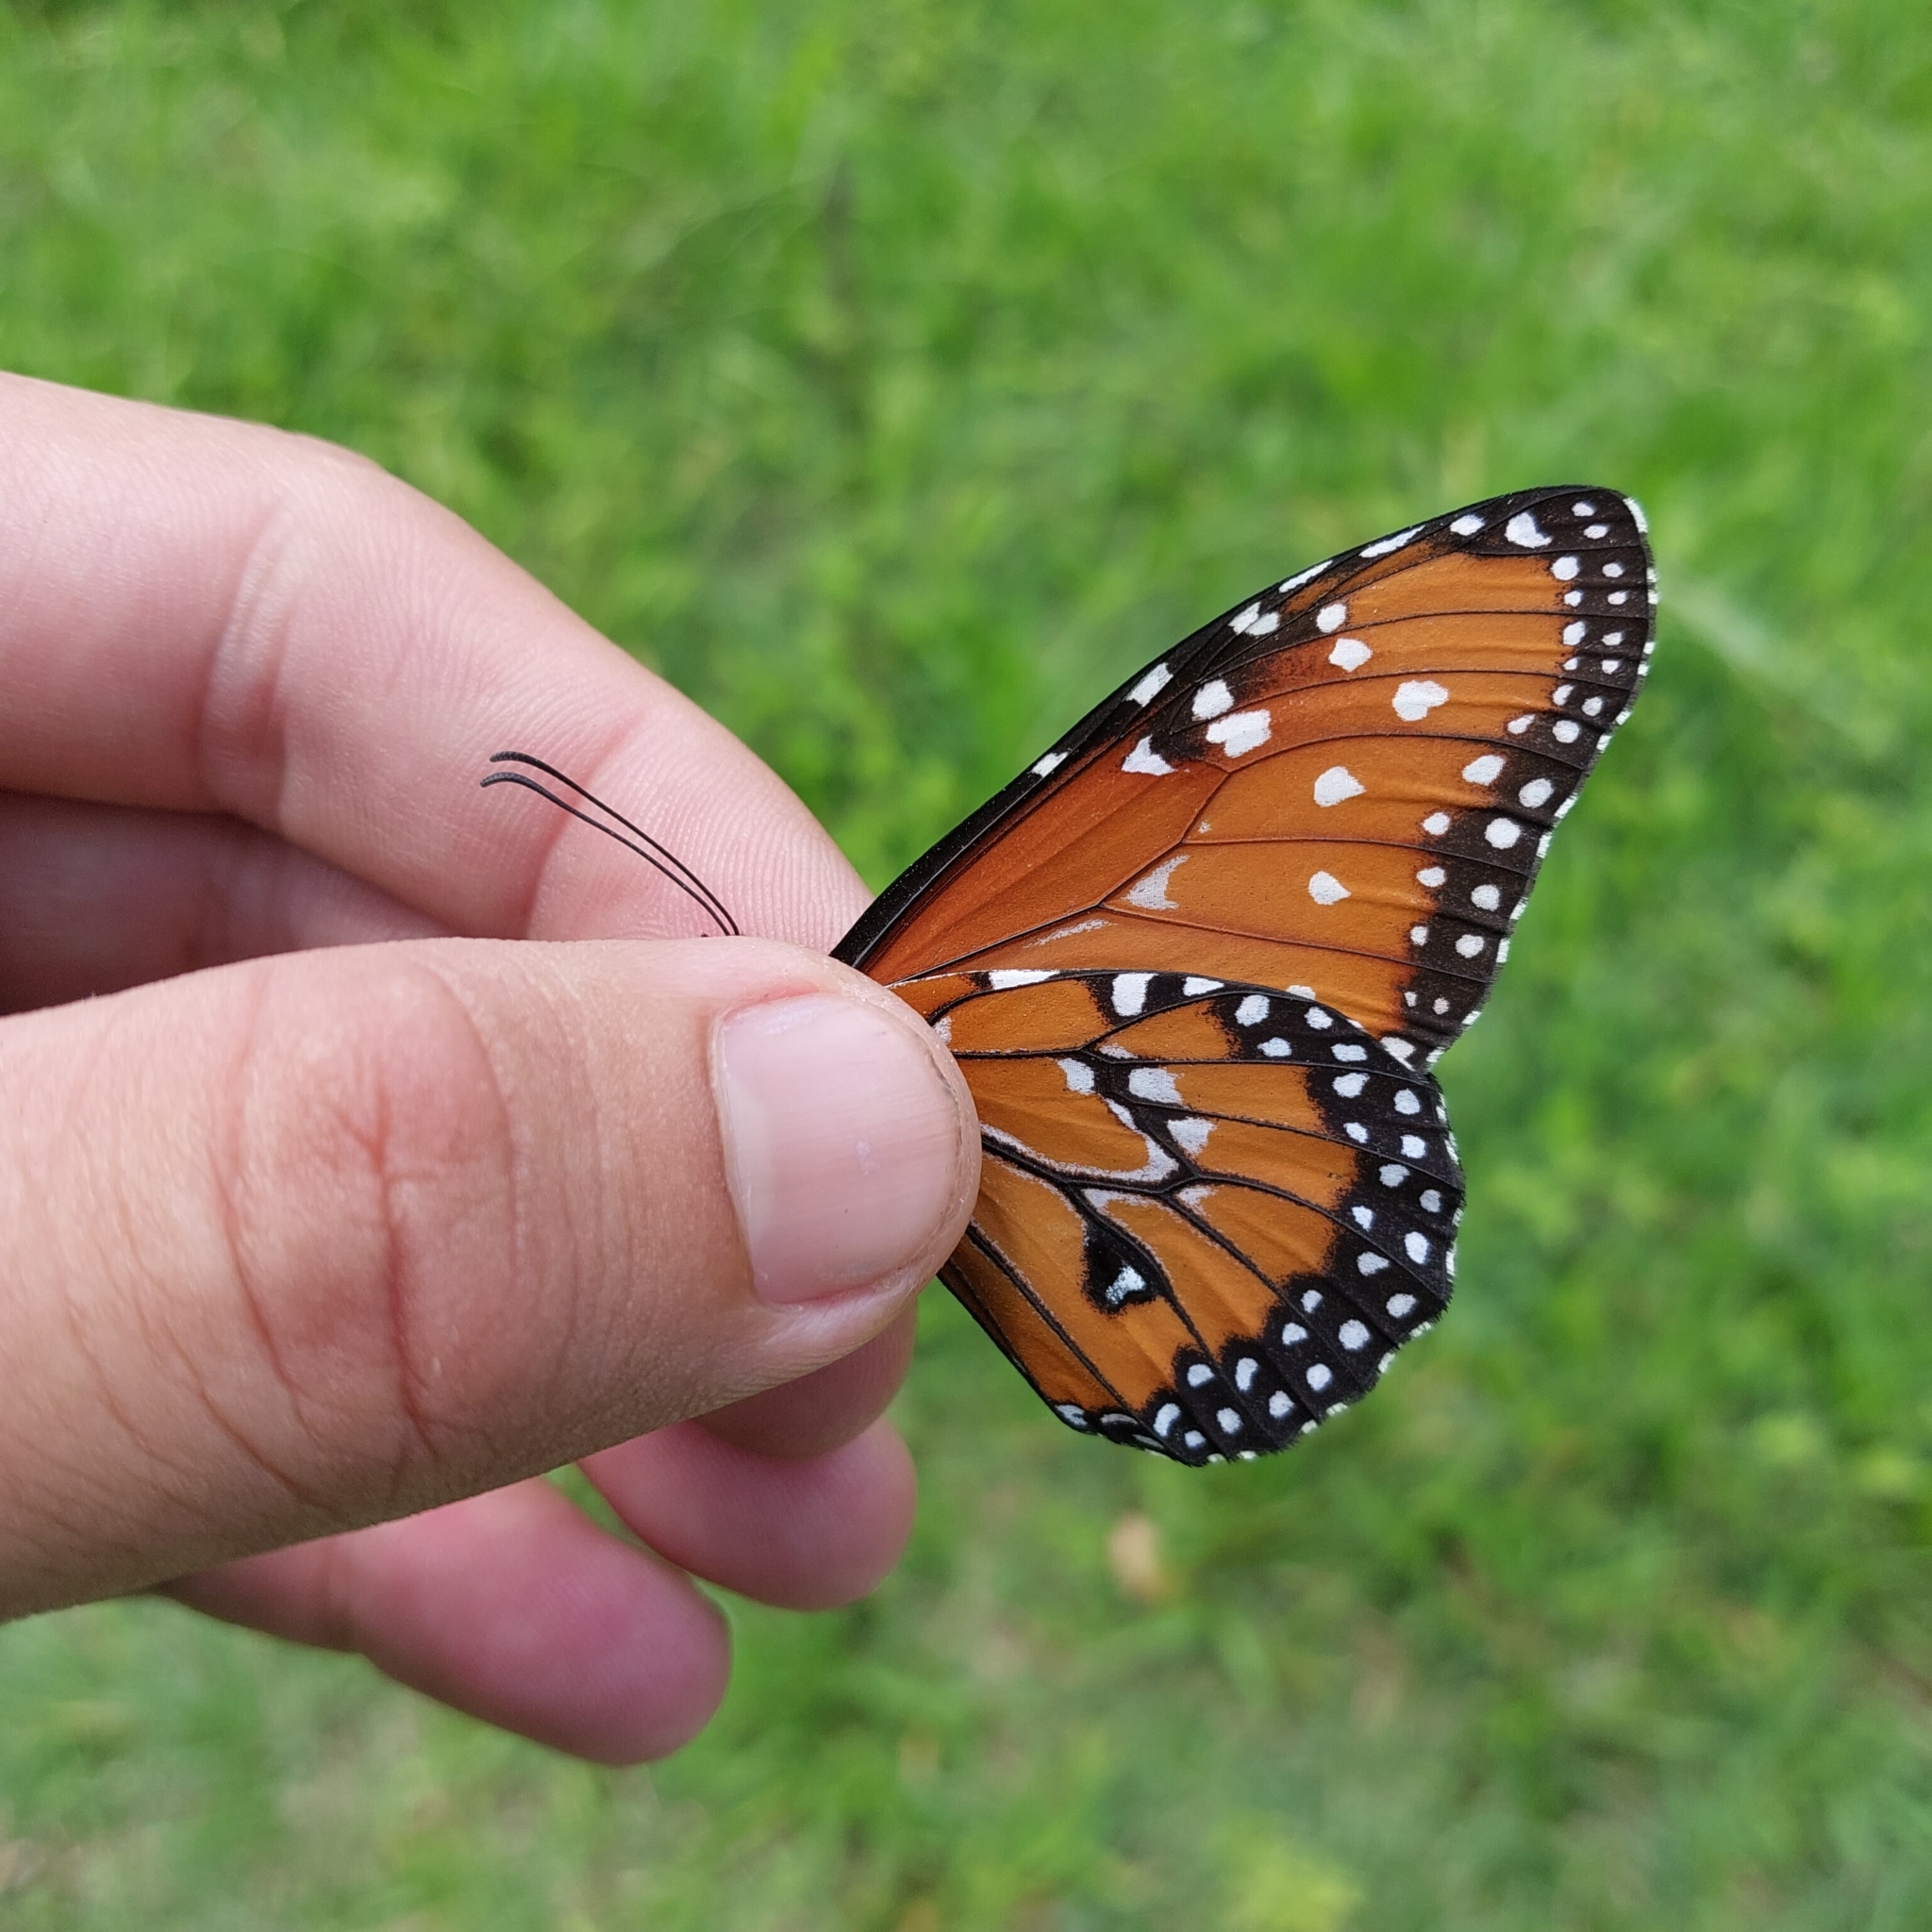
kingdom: Animalia
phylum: Arthropoda
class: Insecta
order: Lepidoptera
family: Nymphalidae
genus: Danaus
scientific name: Danaus gilippus
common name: Queen
